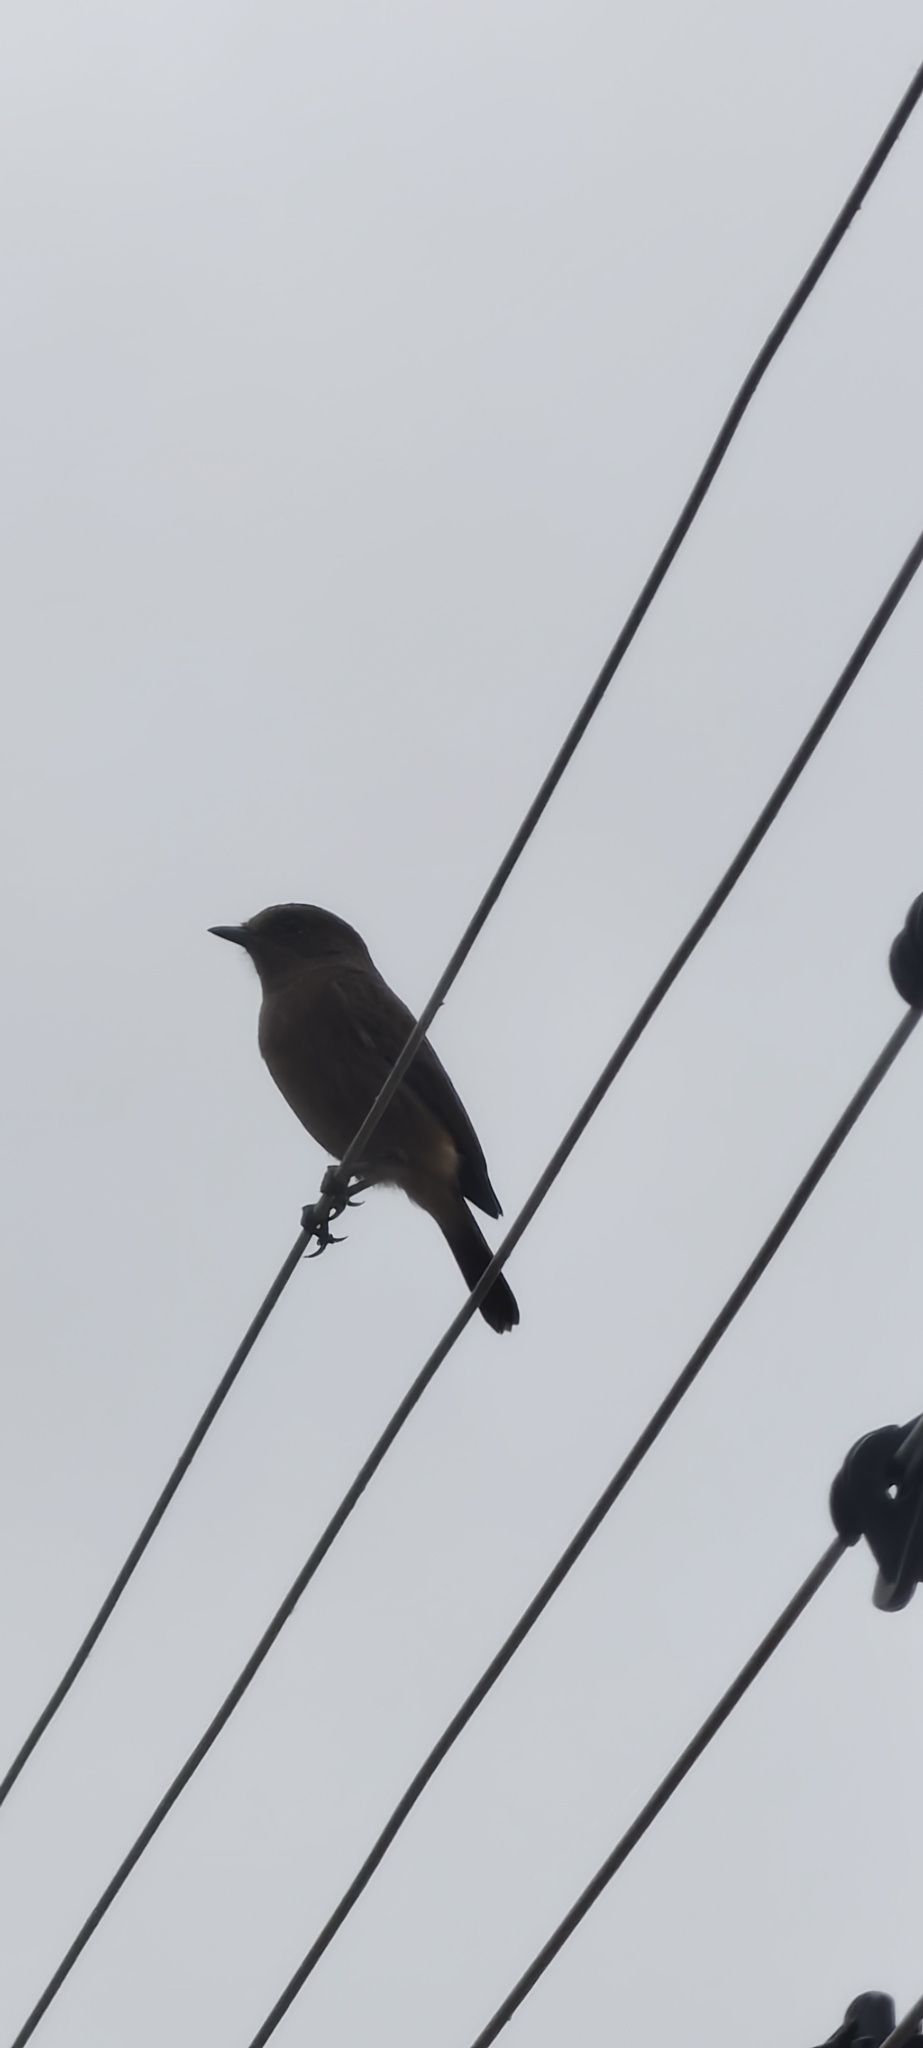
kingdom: Animalia
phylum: Chordata
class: Aves
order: Passeriformes
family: Muscicapidae
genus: Saxicola
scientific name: Saxicola caprata
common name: Pied bush chat
